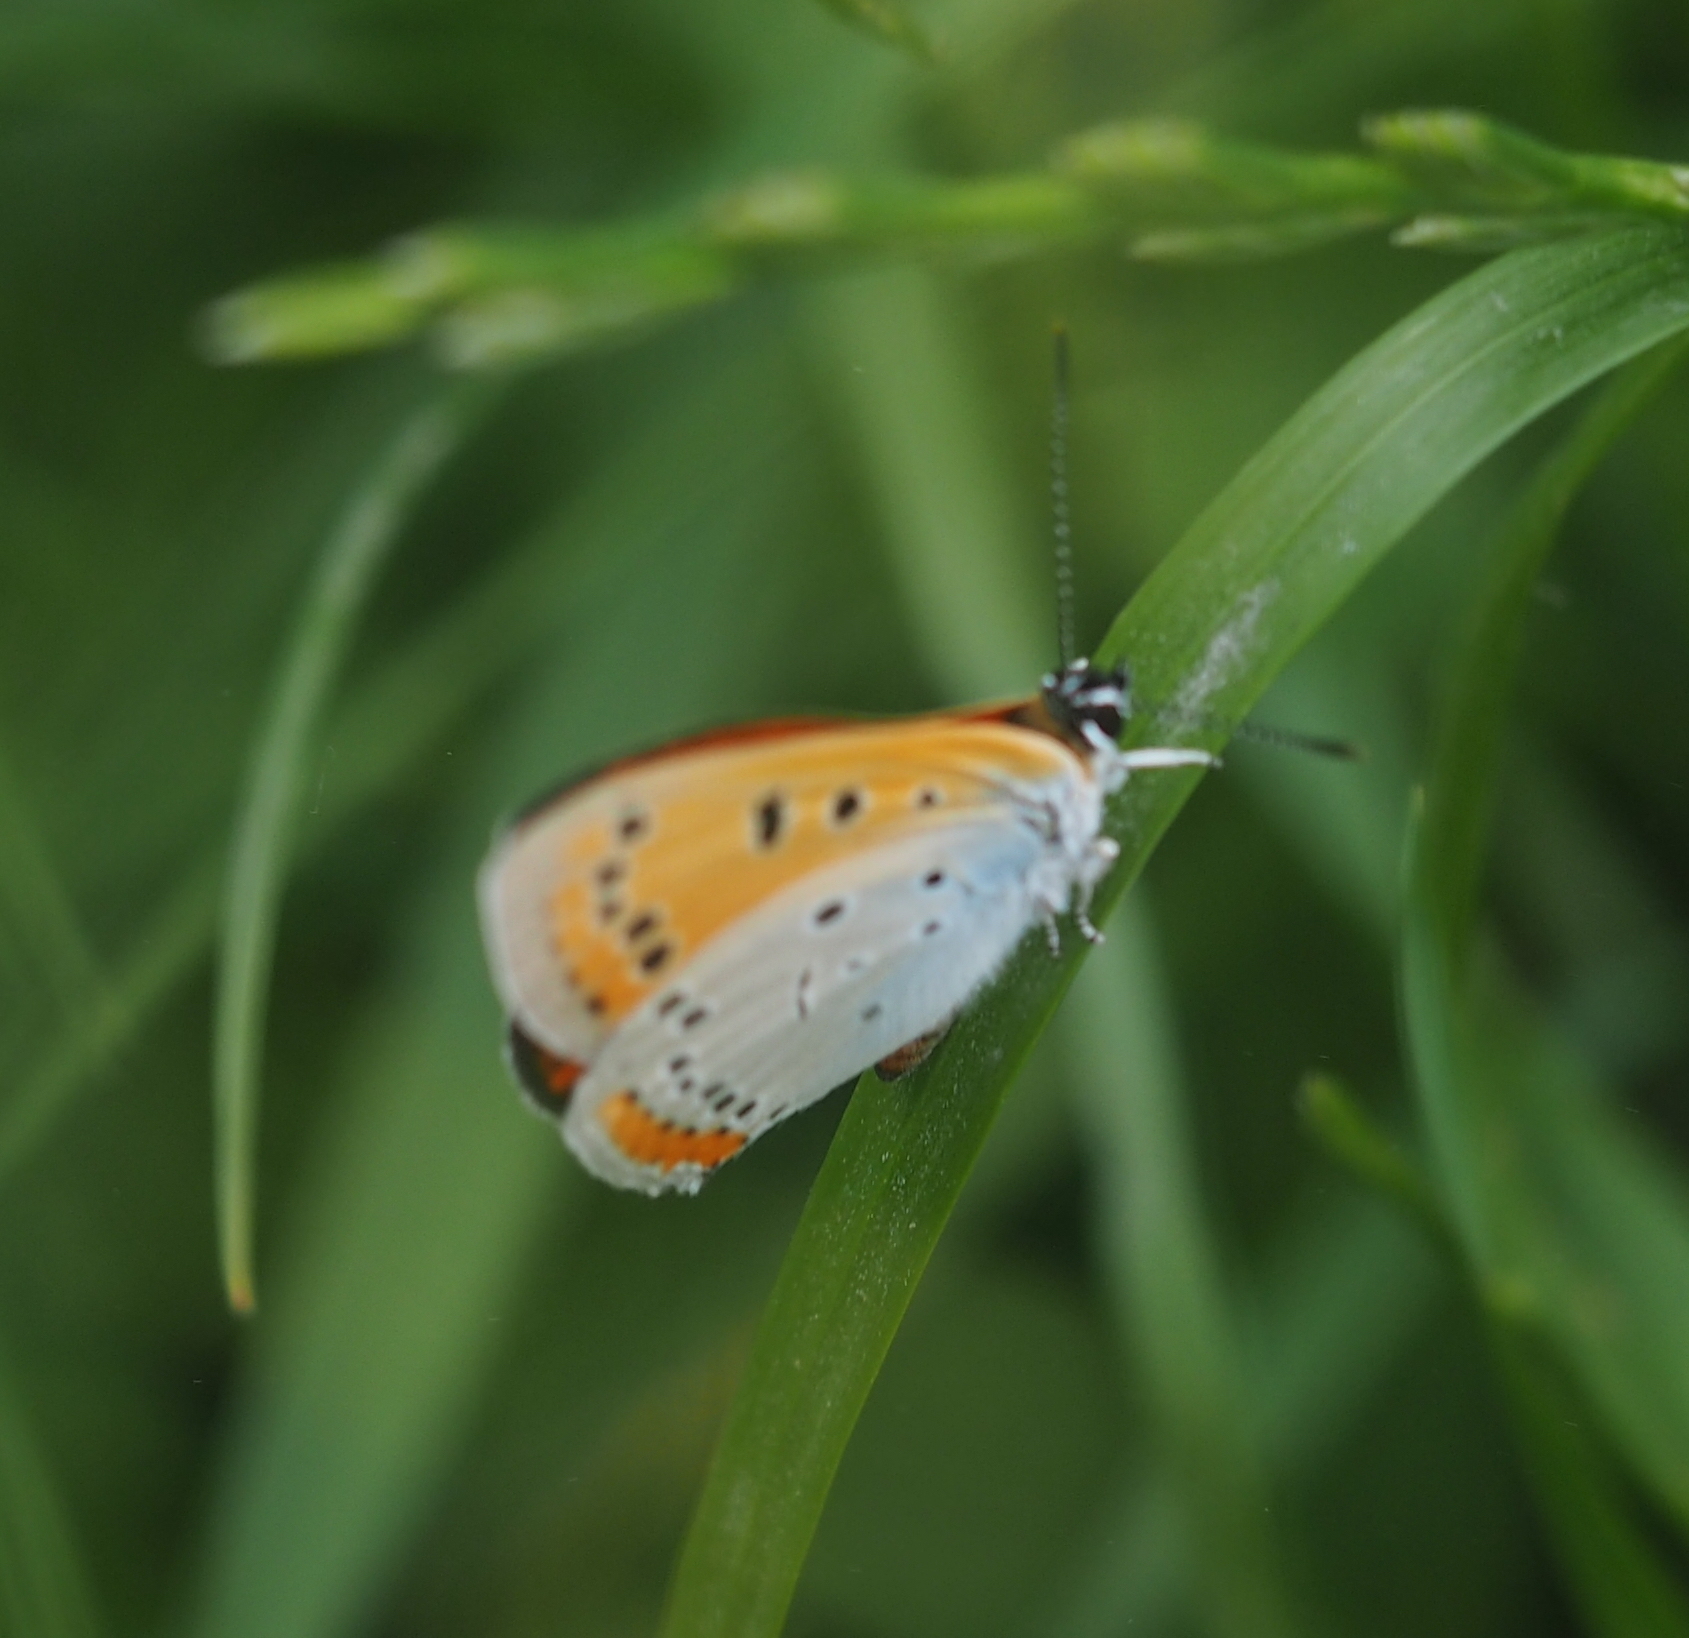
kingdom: Animalia
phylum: Arthropoda
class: Insecta
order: Lepidoptera
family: Lycaenidae
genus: Lycaena
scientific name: Lycaena dispar
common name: Large copper
